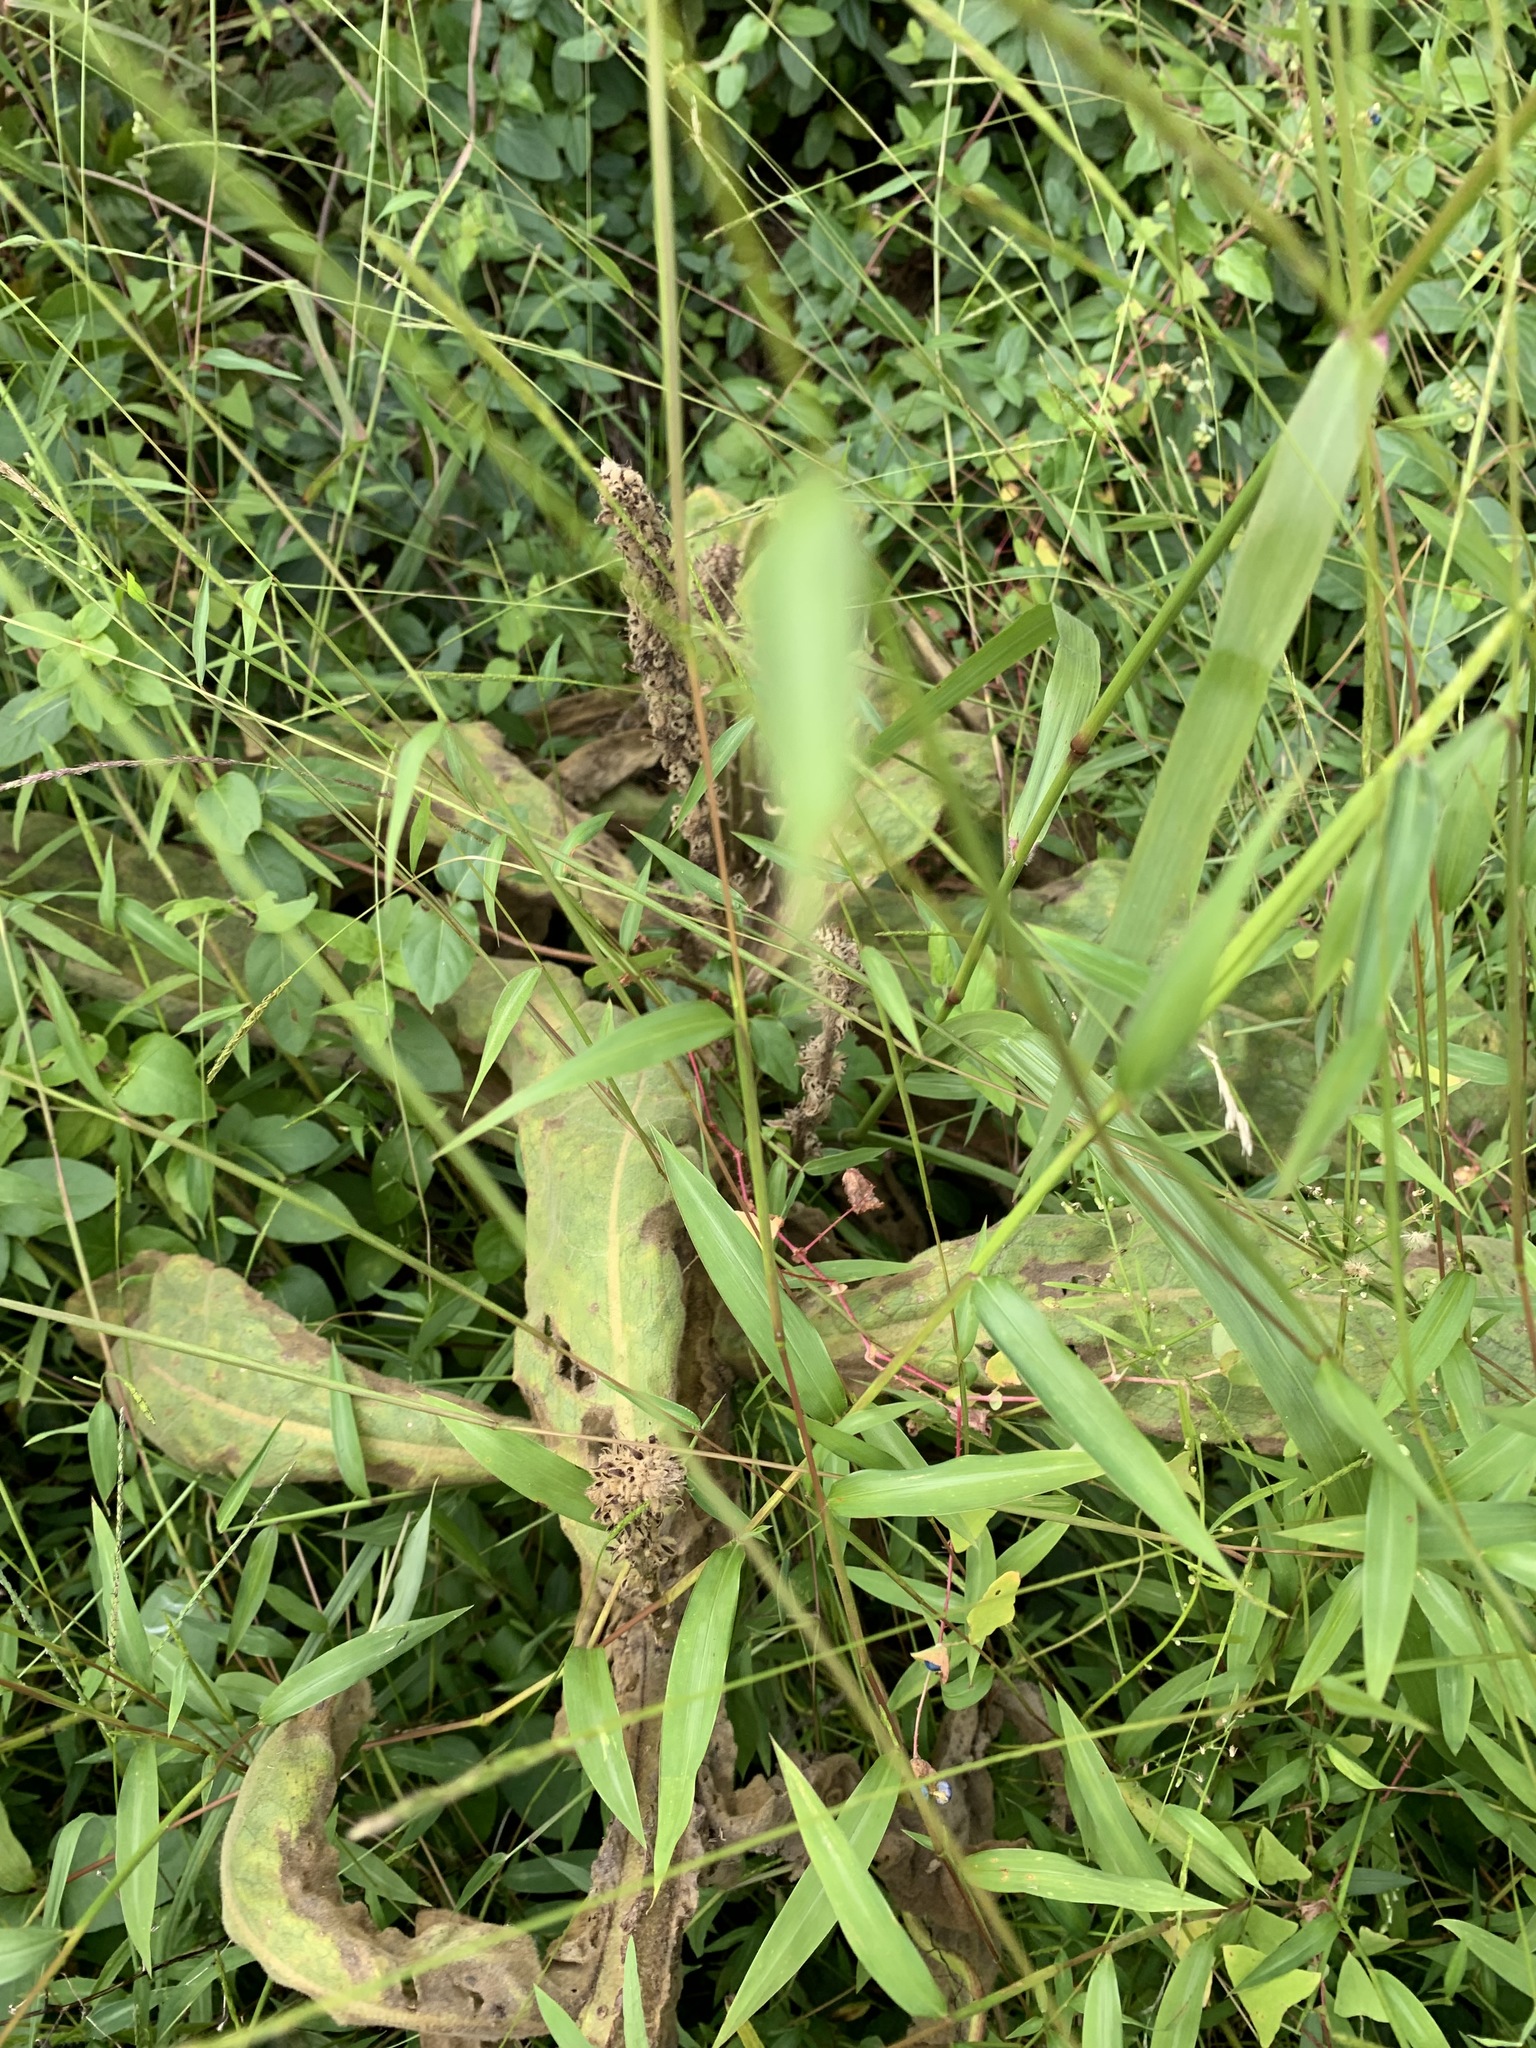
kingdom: Plantae
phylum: Tracheophyta
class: Magnoliopsida
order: Lamiales
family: Scrophulariaceae
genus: Verbascum
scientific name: Verbascum thapsus
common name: Common mullein
